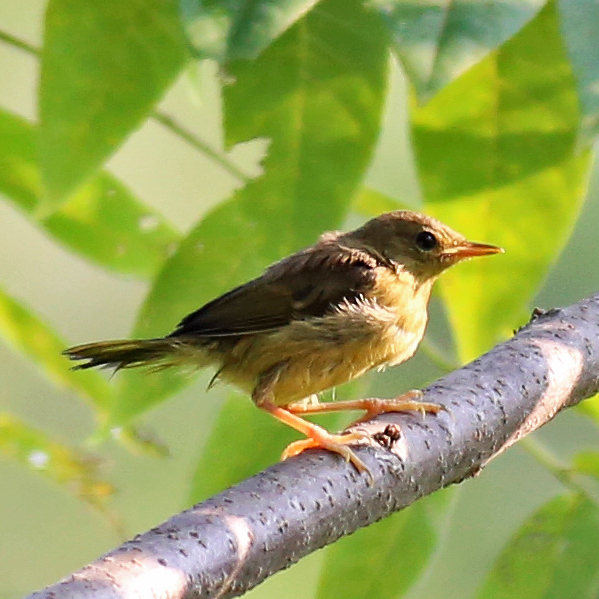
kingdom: Animalia
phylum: Chordata
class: Aves
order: Passeriformes
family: Parulidae
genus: Geothlypis
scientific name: Geothlypis trichas
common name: Common yellowthroat
